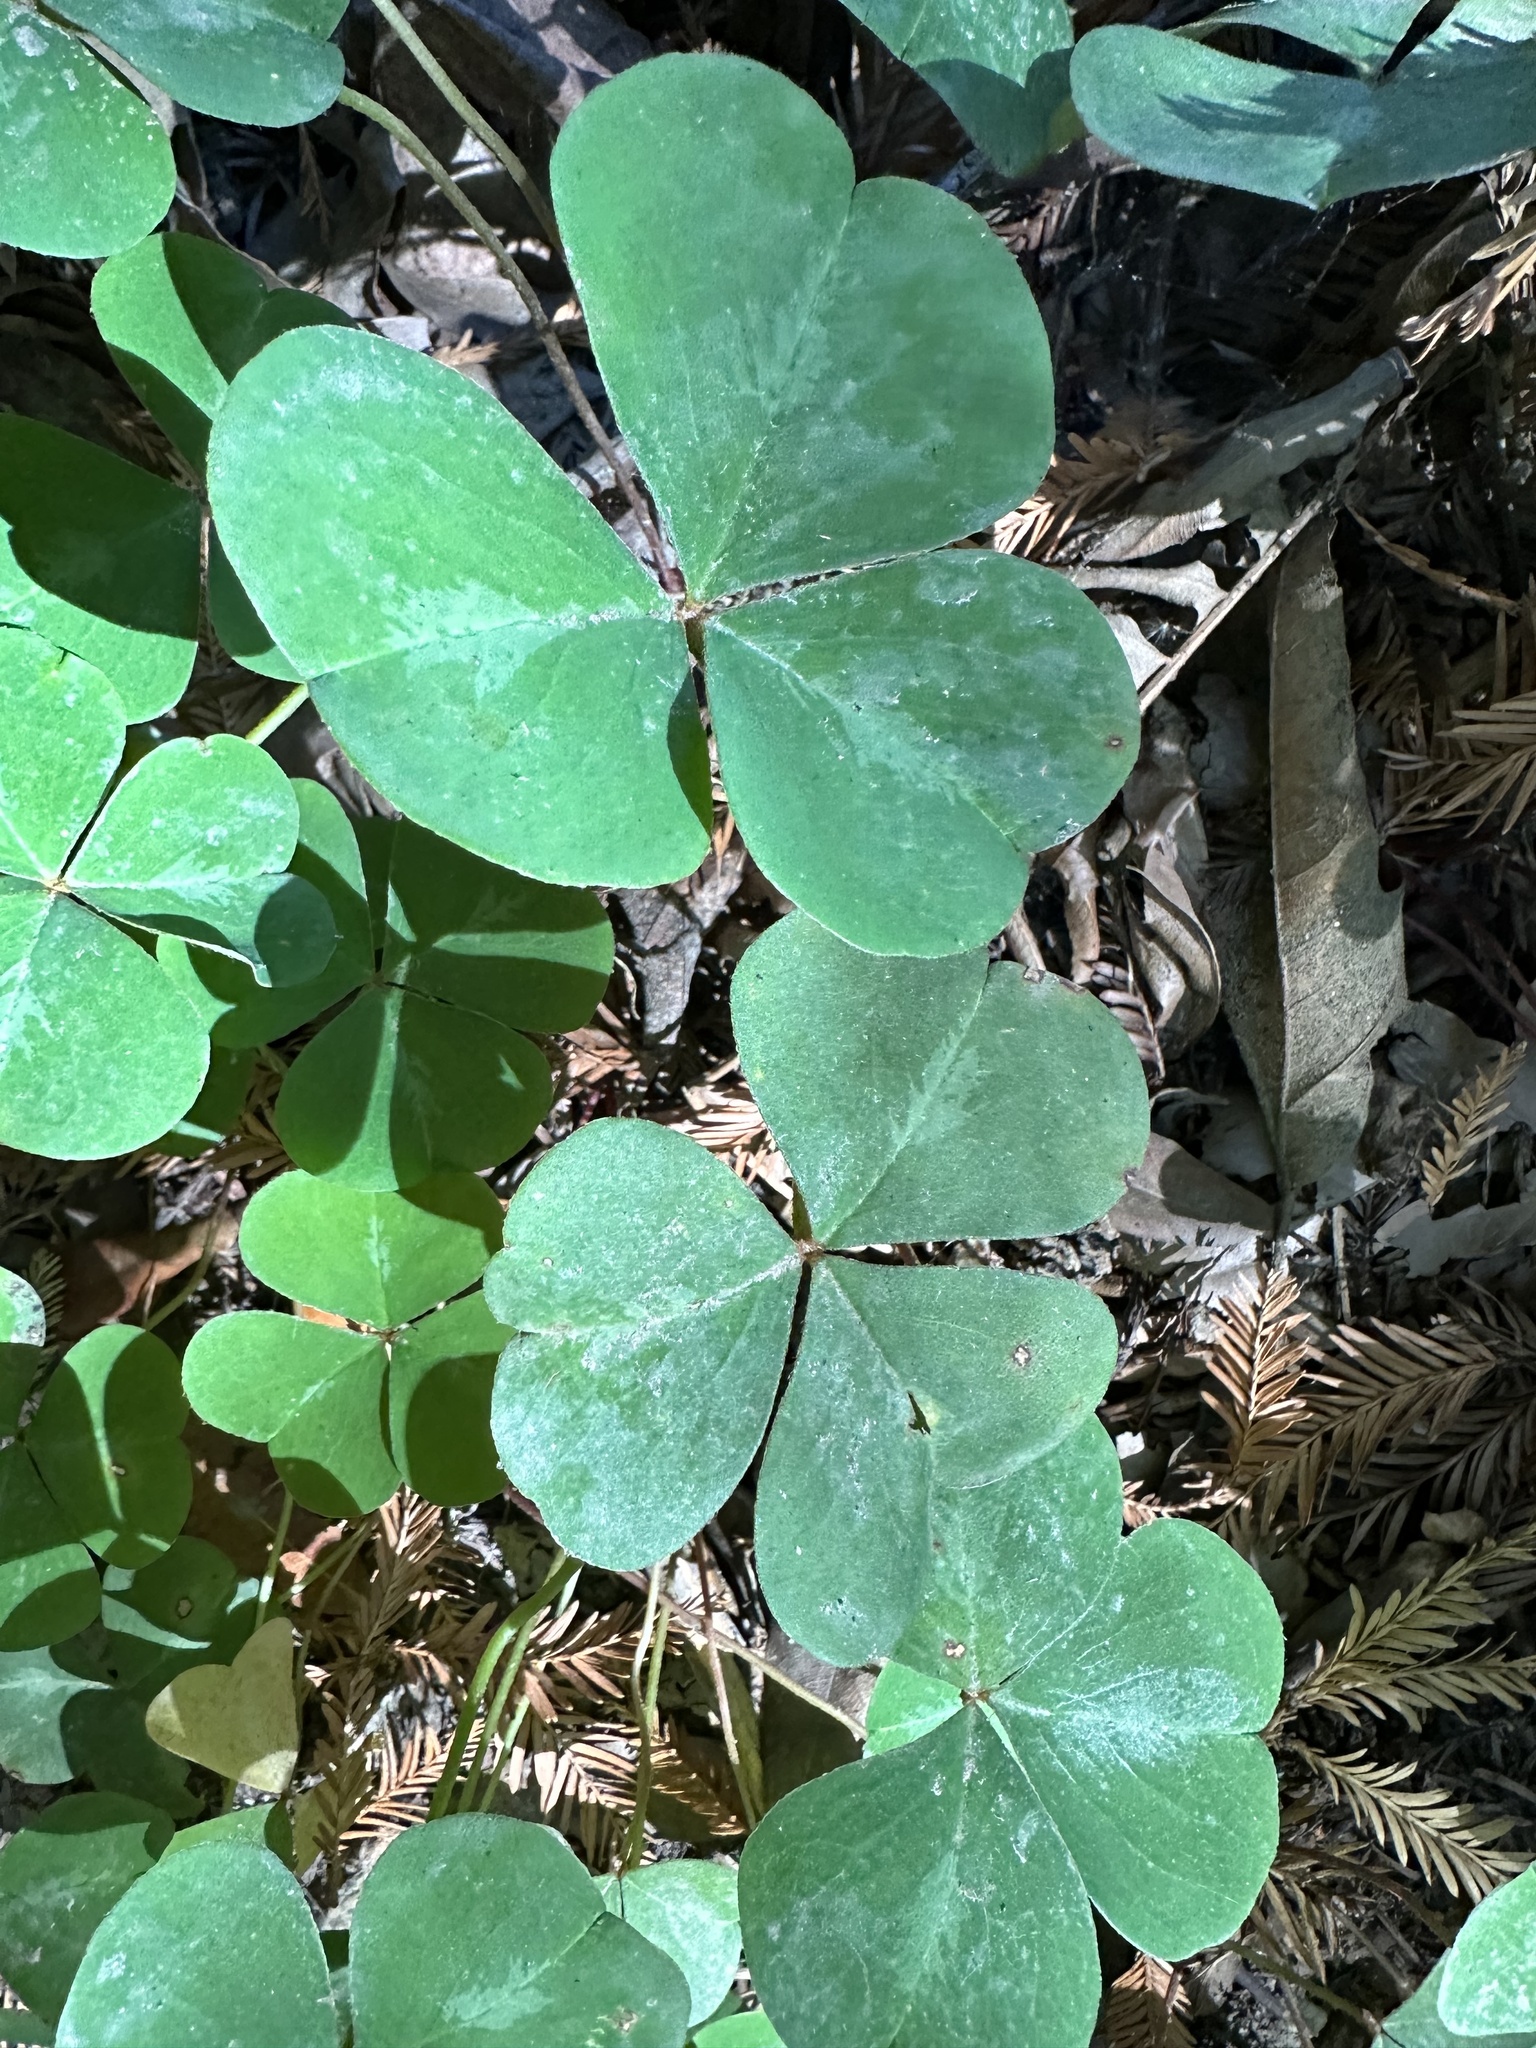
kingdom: Plantae
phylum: Tracheophyta
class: Magnoliopsida
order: Oxalidales
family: Oxalidaceae
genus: Oxalis
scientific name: Oxalis oregana
